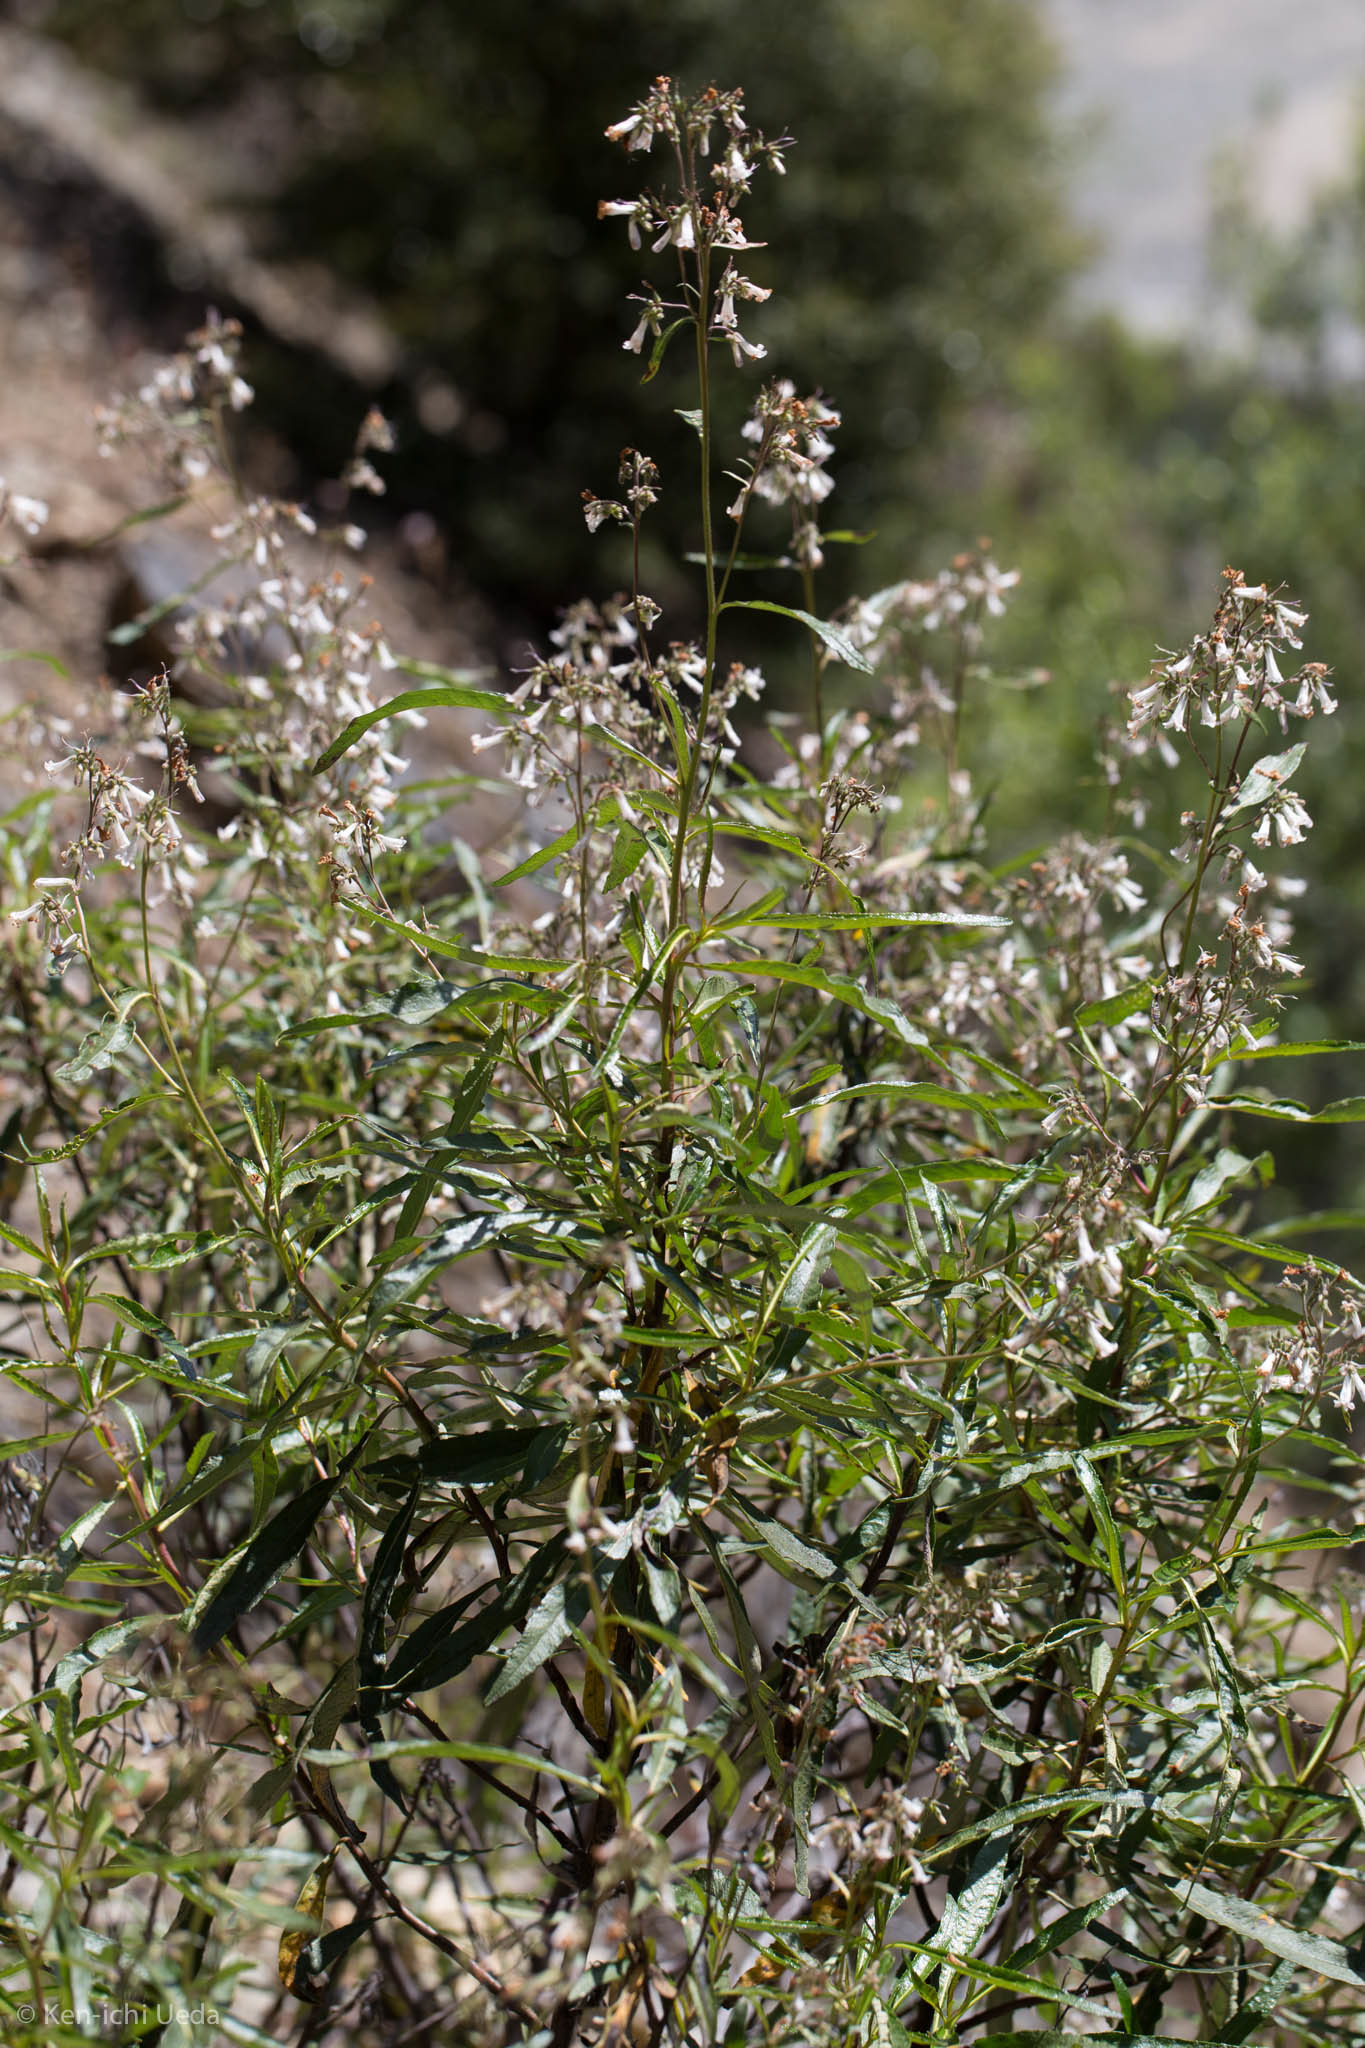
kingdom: Plantae
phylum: Tracheophyta
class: Magnoliopsida
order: Boraginales
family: Namaceae
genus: Eriodictyon
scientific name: Eriodictyon californicum
